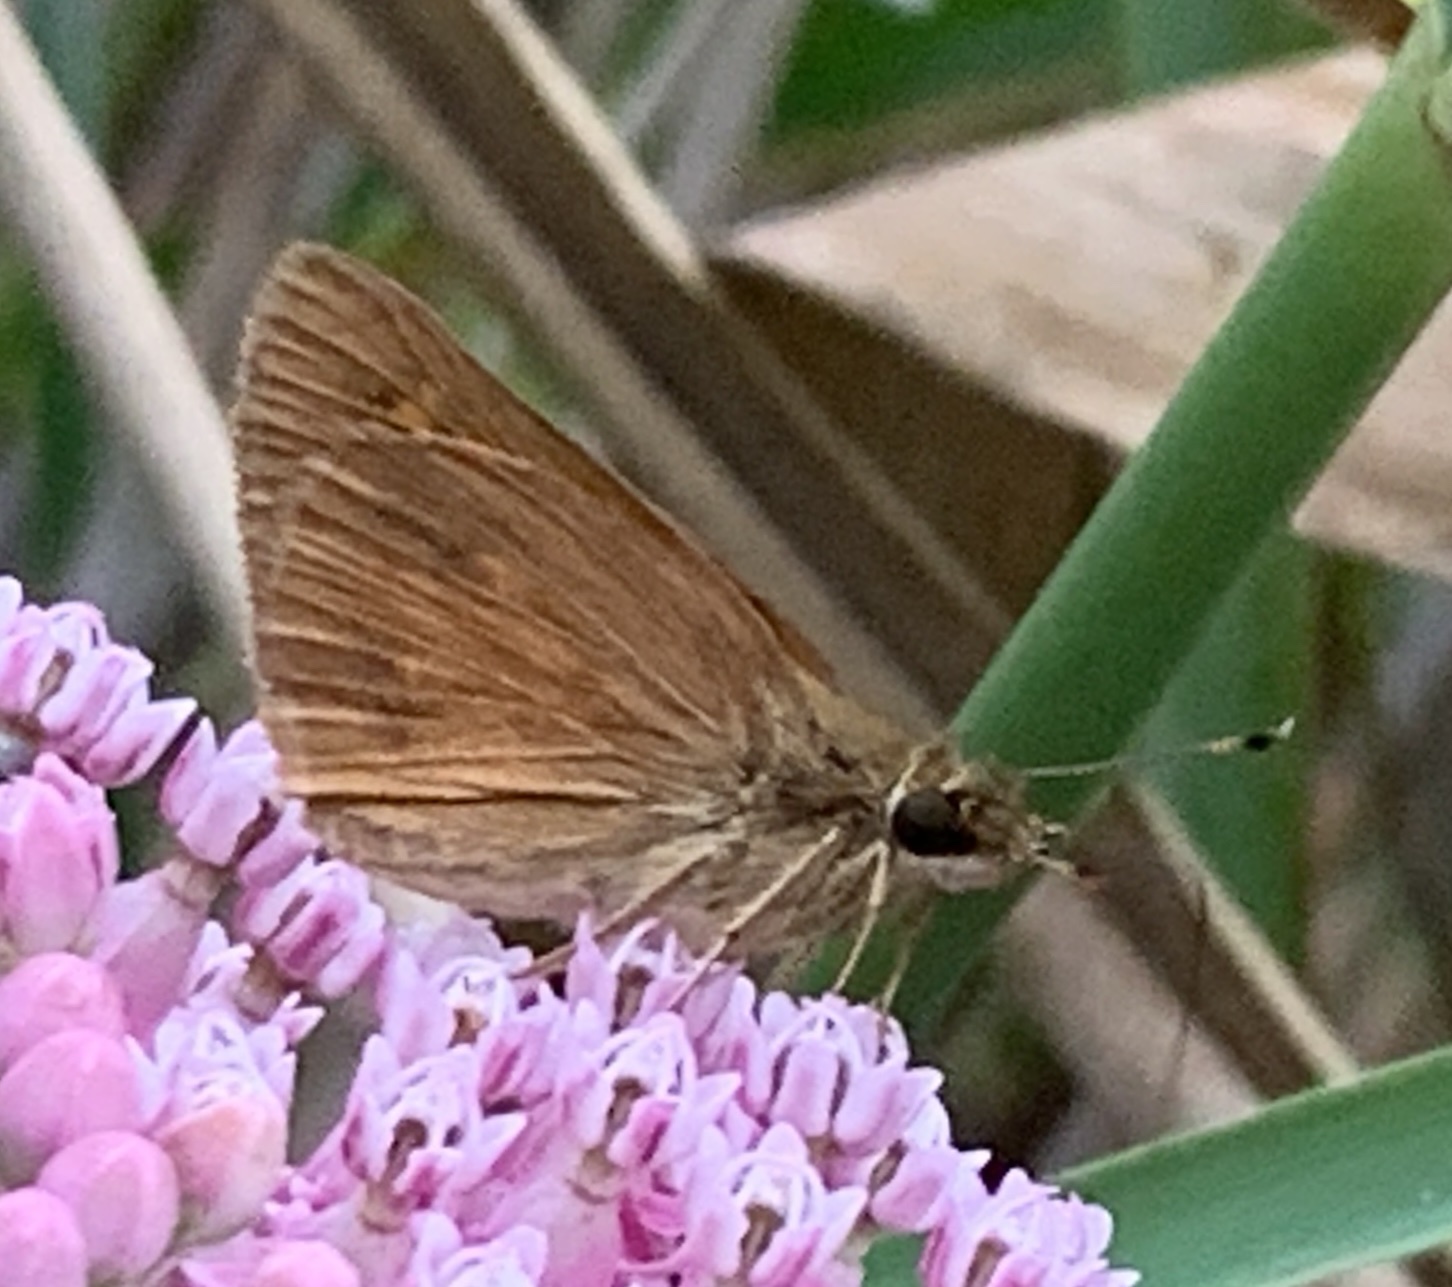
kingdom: Animalia
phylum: Arthropoda
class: Insecta
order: Lepidoptera
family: Hesperiidae
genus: Poanes
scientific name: Poanes viator
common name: Broad-winged skipper
